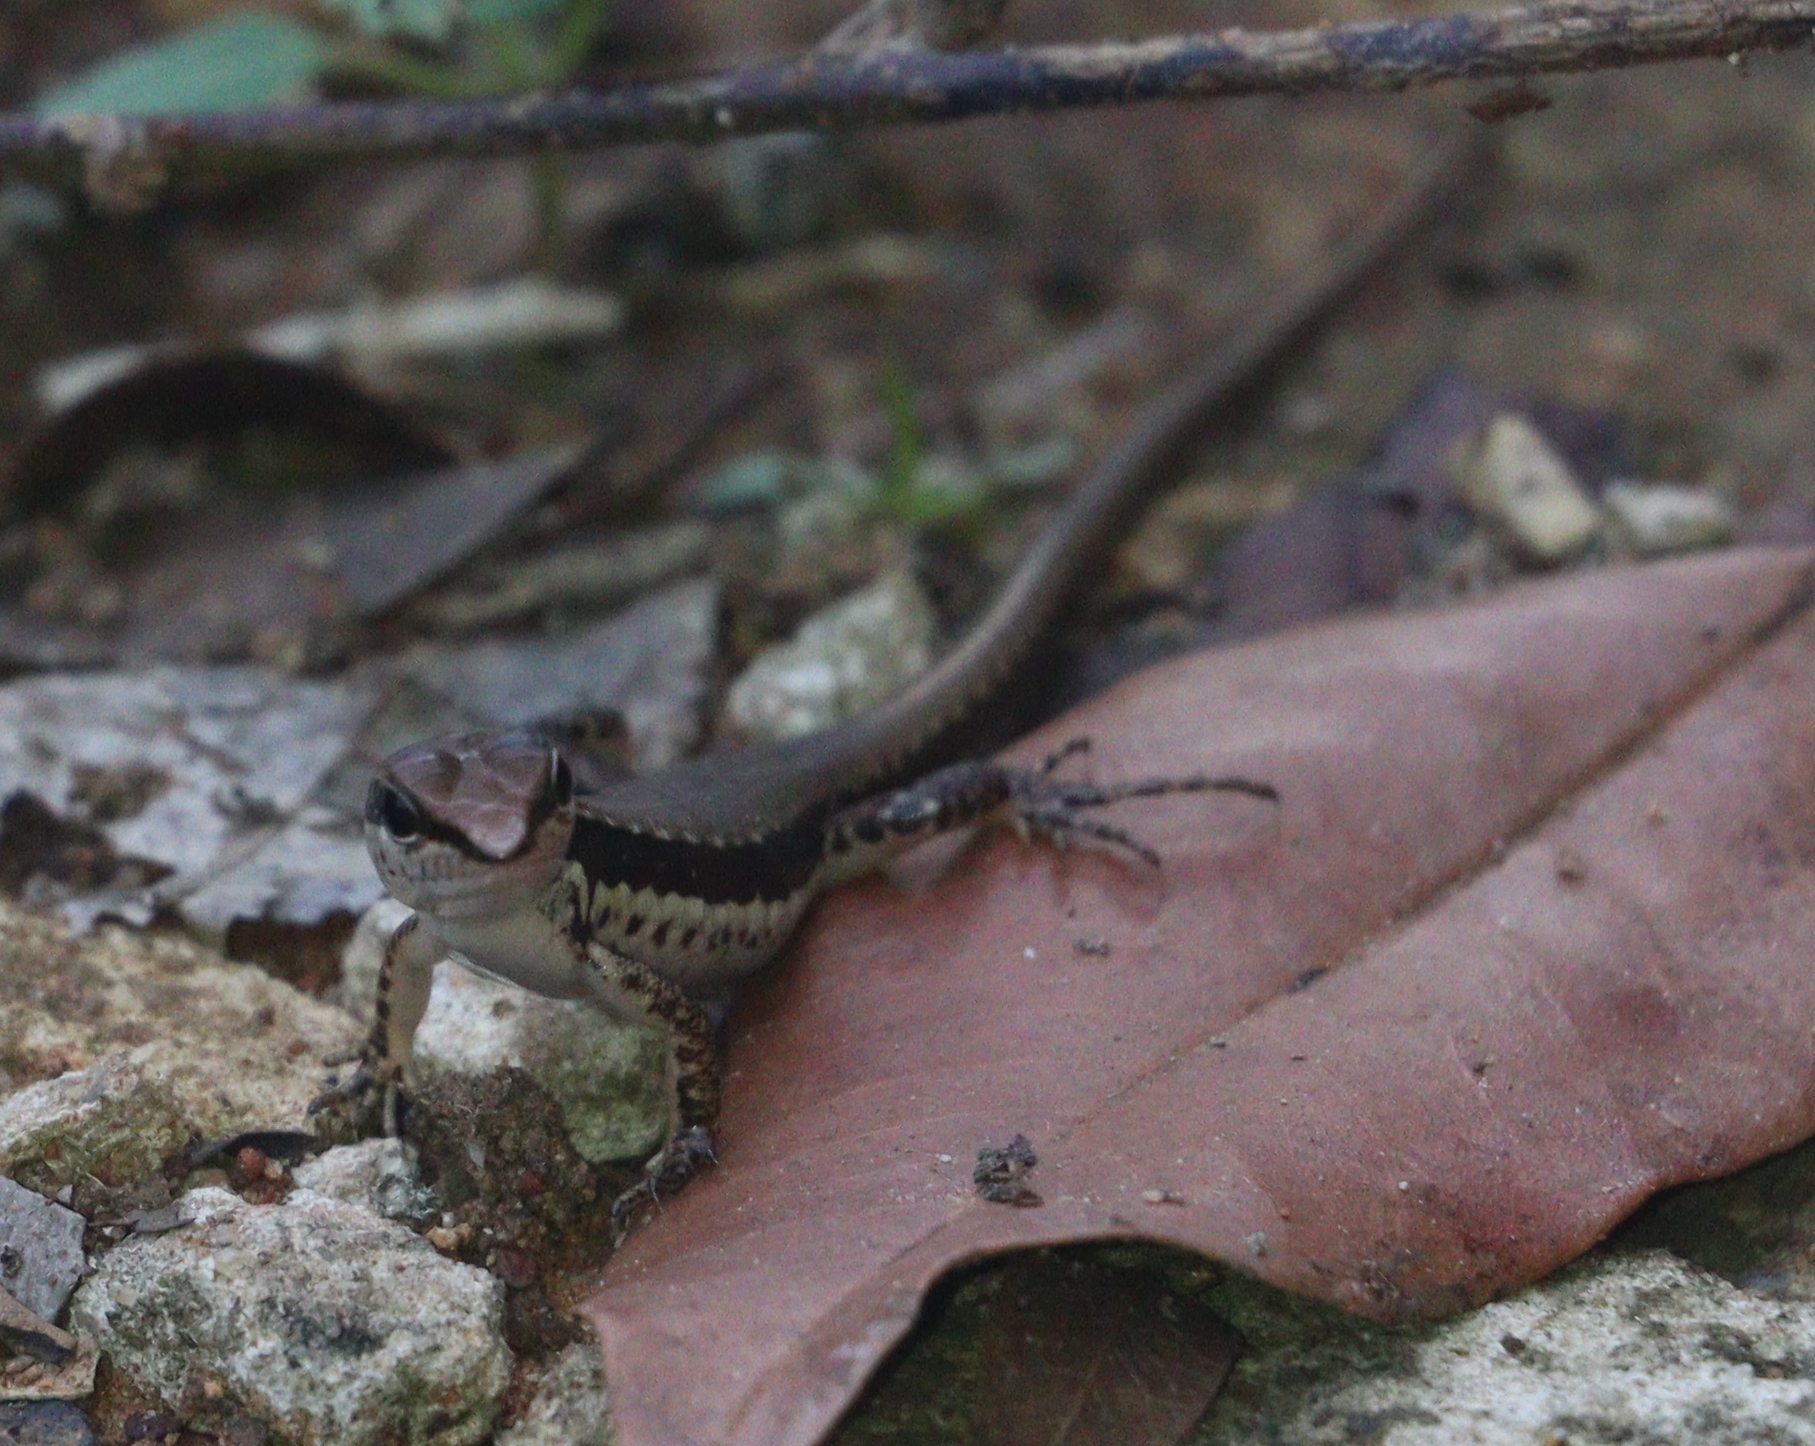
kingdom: Animalia
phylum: Chordata
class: Squamata
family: Scincidae
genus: Sphenomorphus
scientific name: Sphenomorphus maculatus
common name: Maculated forest skink
